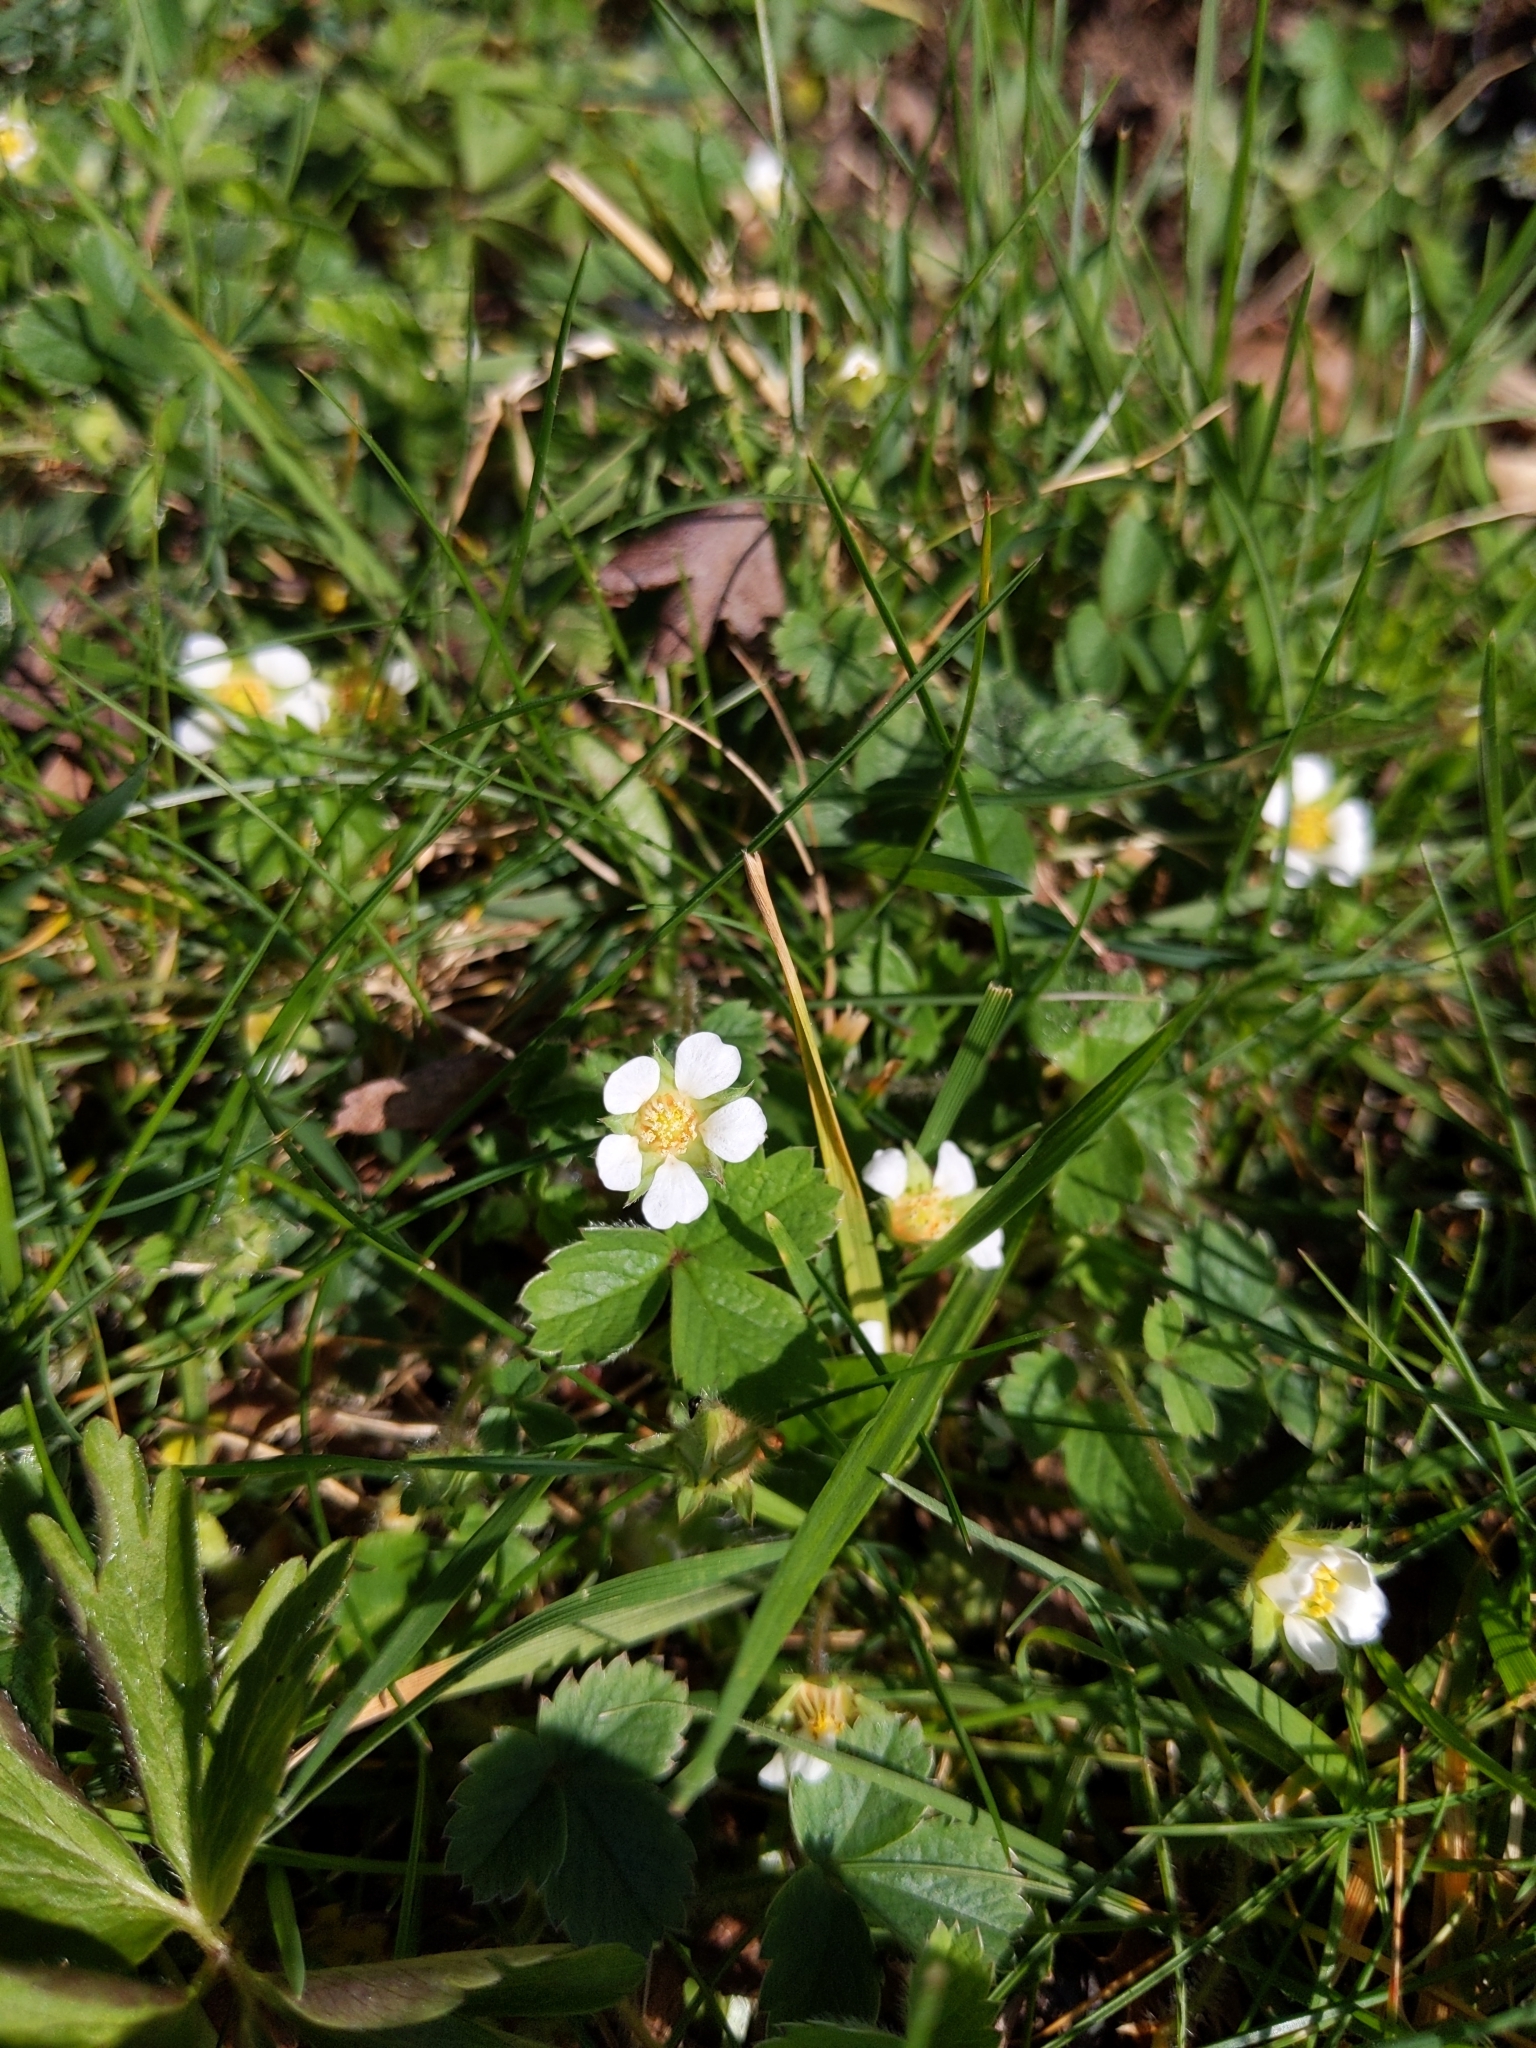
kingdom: Plantae
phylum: Tracheophyta
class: Magnoliopsida
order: Rosales
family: Rosaceae
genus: Potentilla
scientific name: Potentilla sterilis
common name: Barren strawberry
